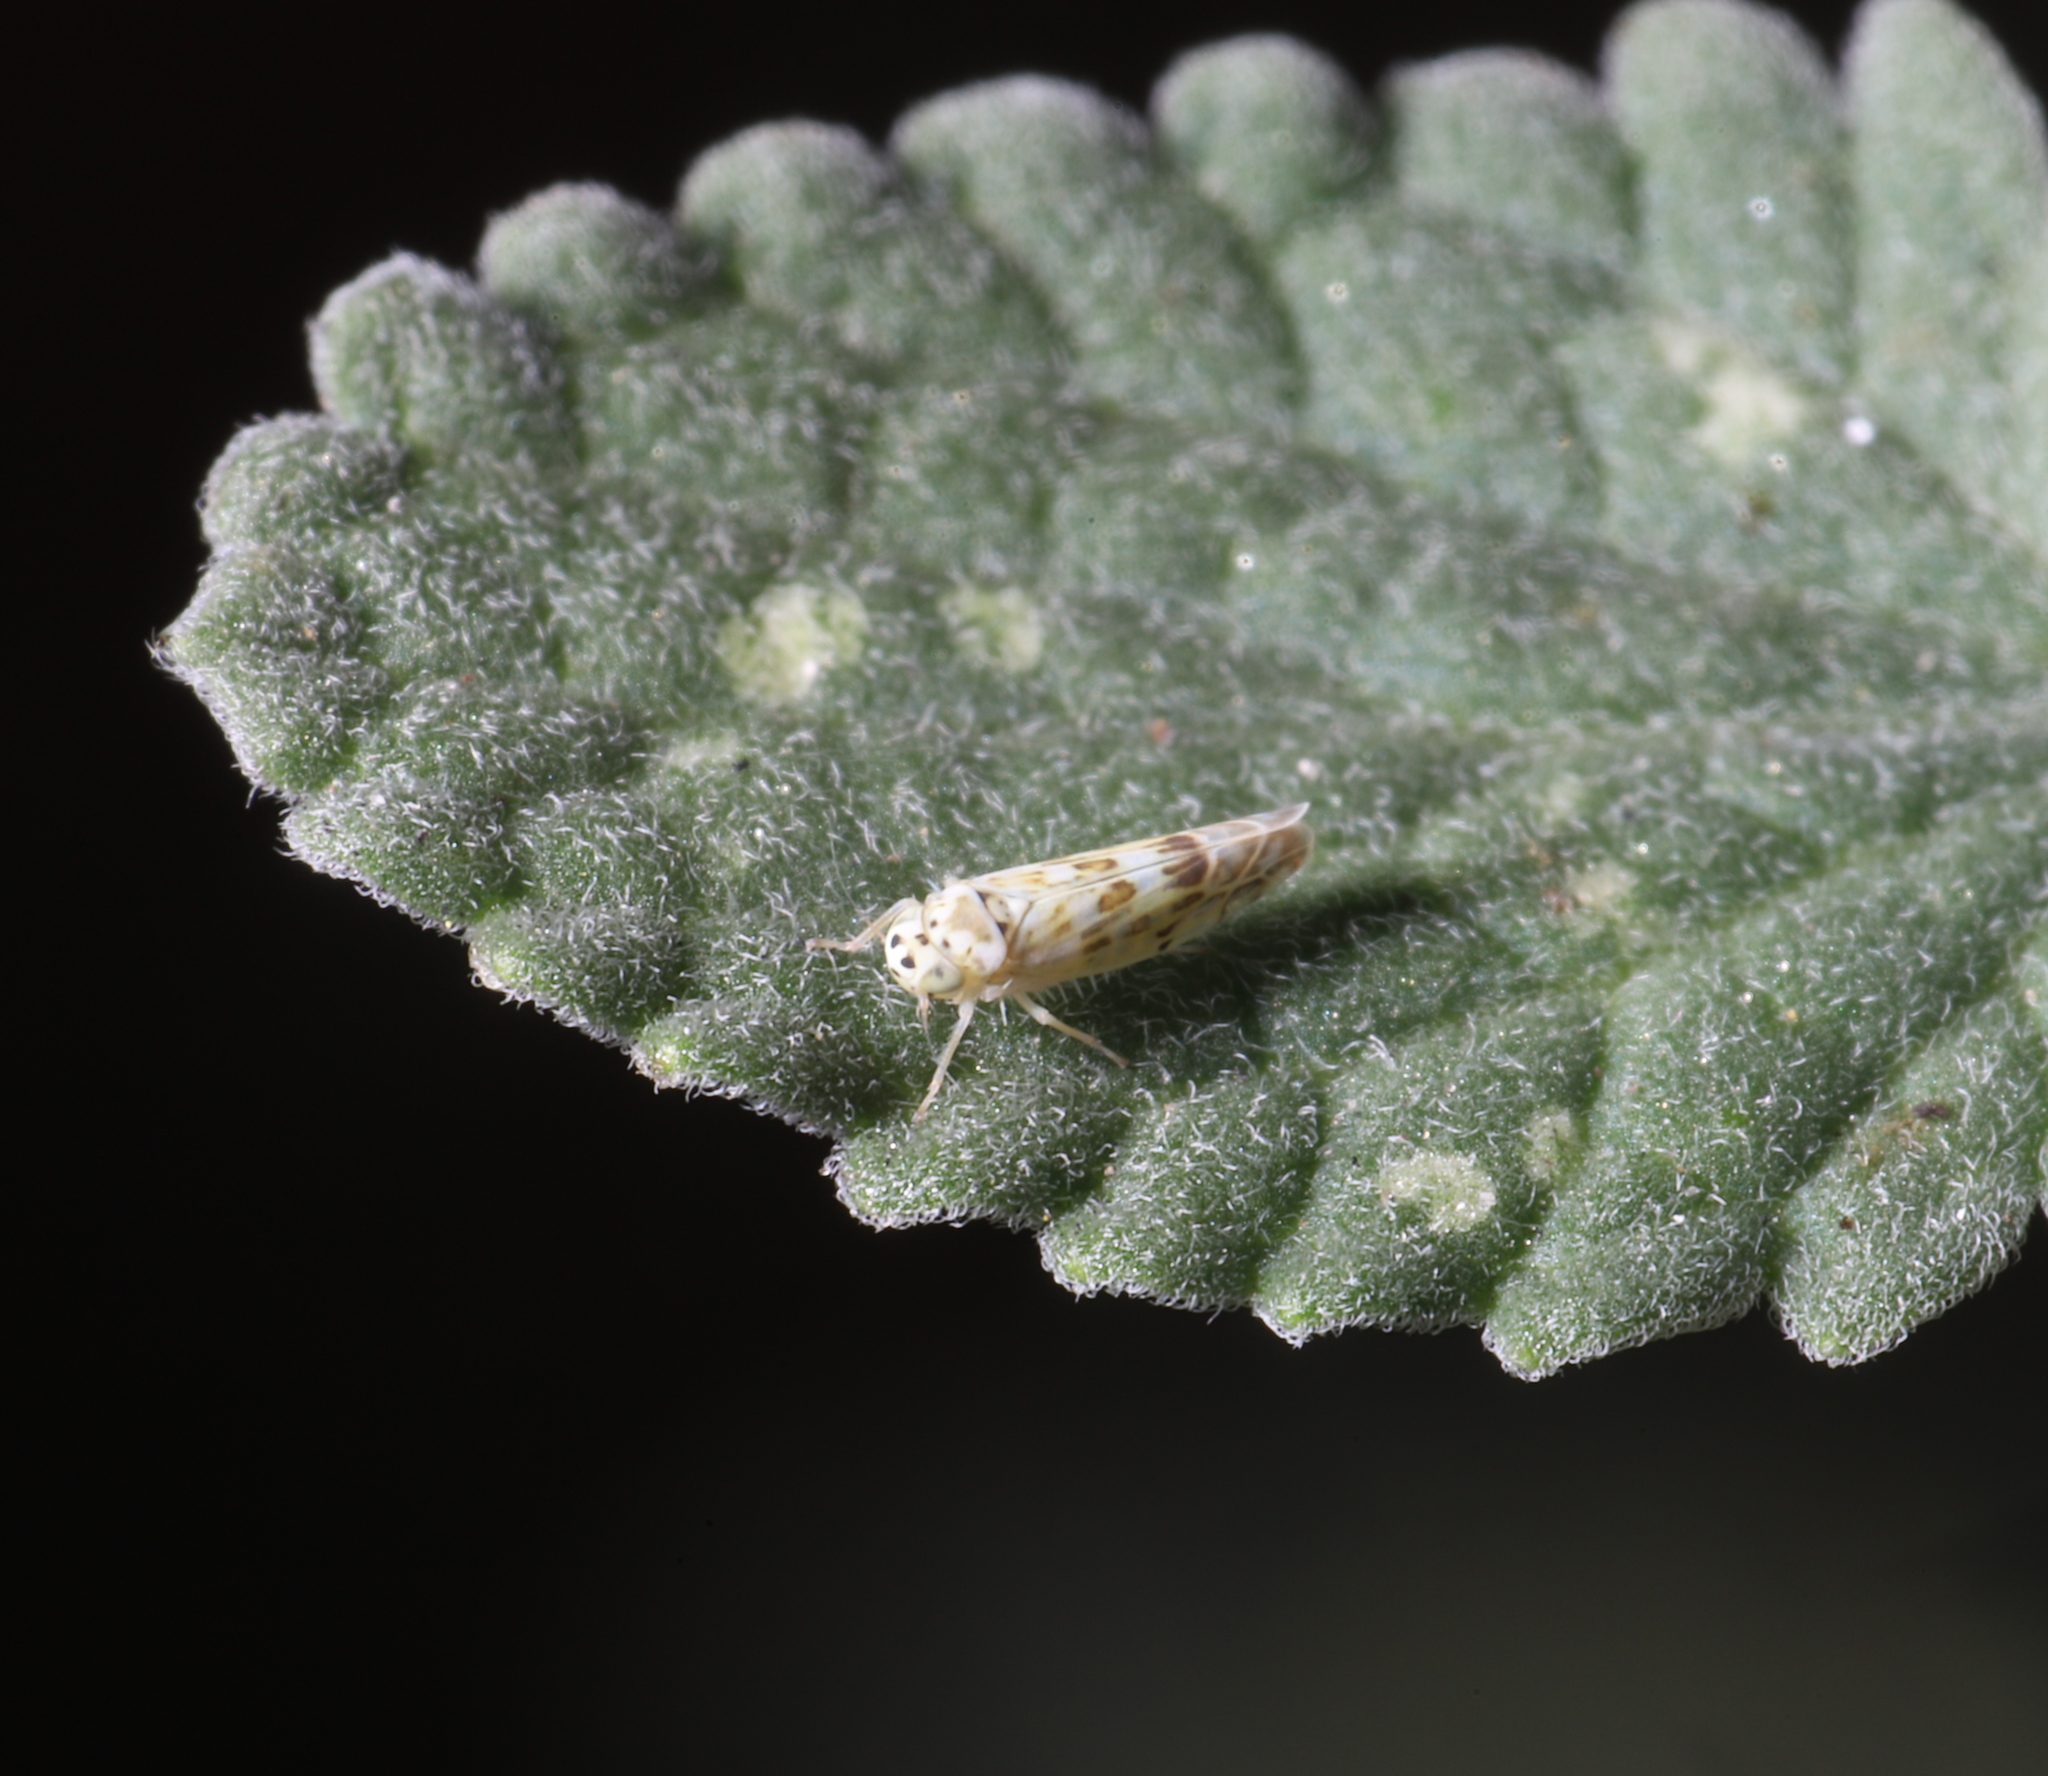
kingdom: Animalia
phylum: Arthropoda
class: Insecta
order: Hemiptera
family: Cicadellidae
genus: Eupteryx
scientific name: Eupteryx melissae
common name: Herb leafhopper
